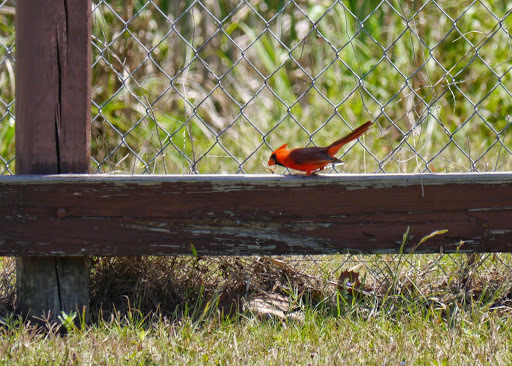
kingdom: Animalia
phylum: Chordata
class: Aves
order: Passeriformes
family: Cardinalidae
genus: Cardinalis
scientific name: Cardinalis cardinalis
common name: Northern cardinal
